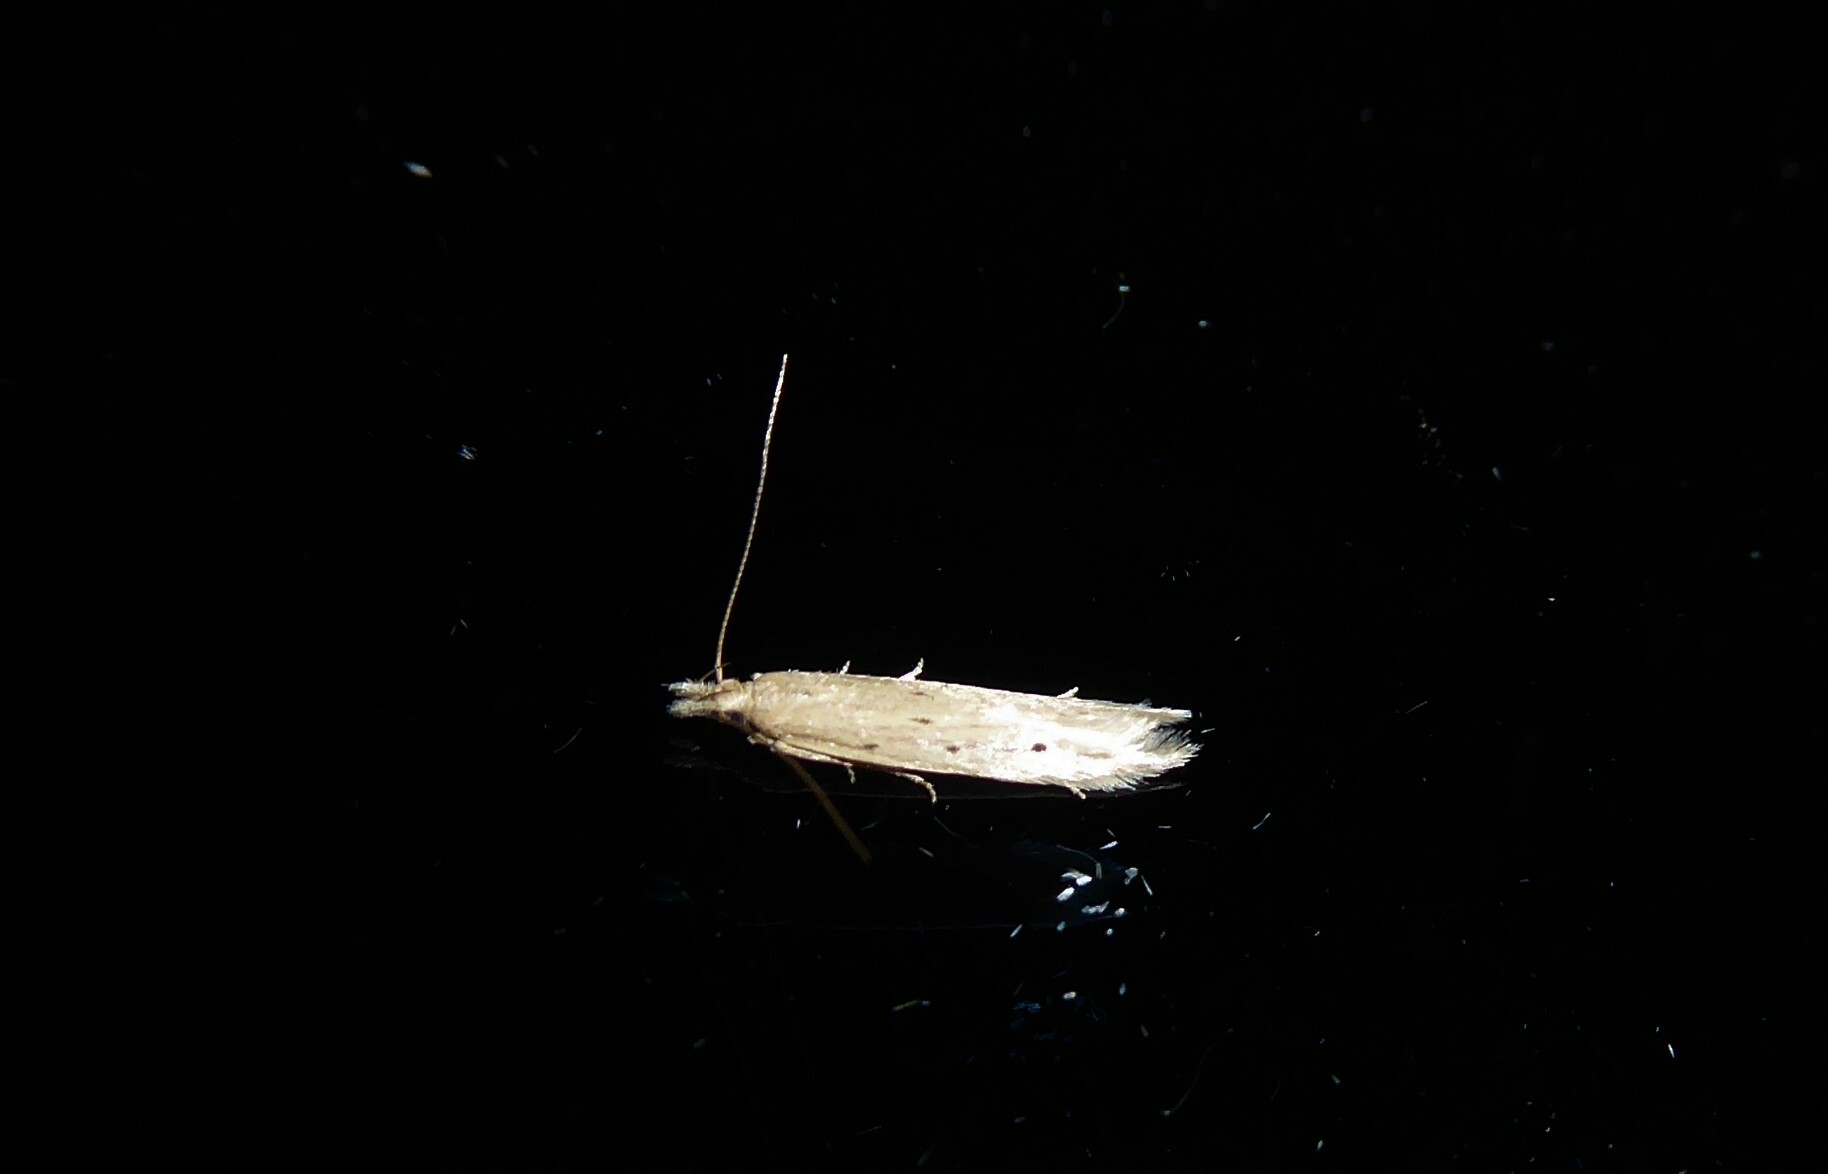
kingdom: Animalia
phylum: Arthropoda
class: Insecta
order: Lepidoptera
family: Gelechiidae
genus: Epiphthora
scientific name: Epiphthora calamogonus
